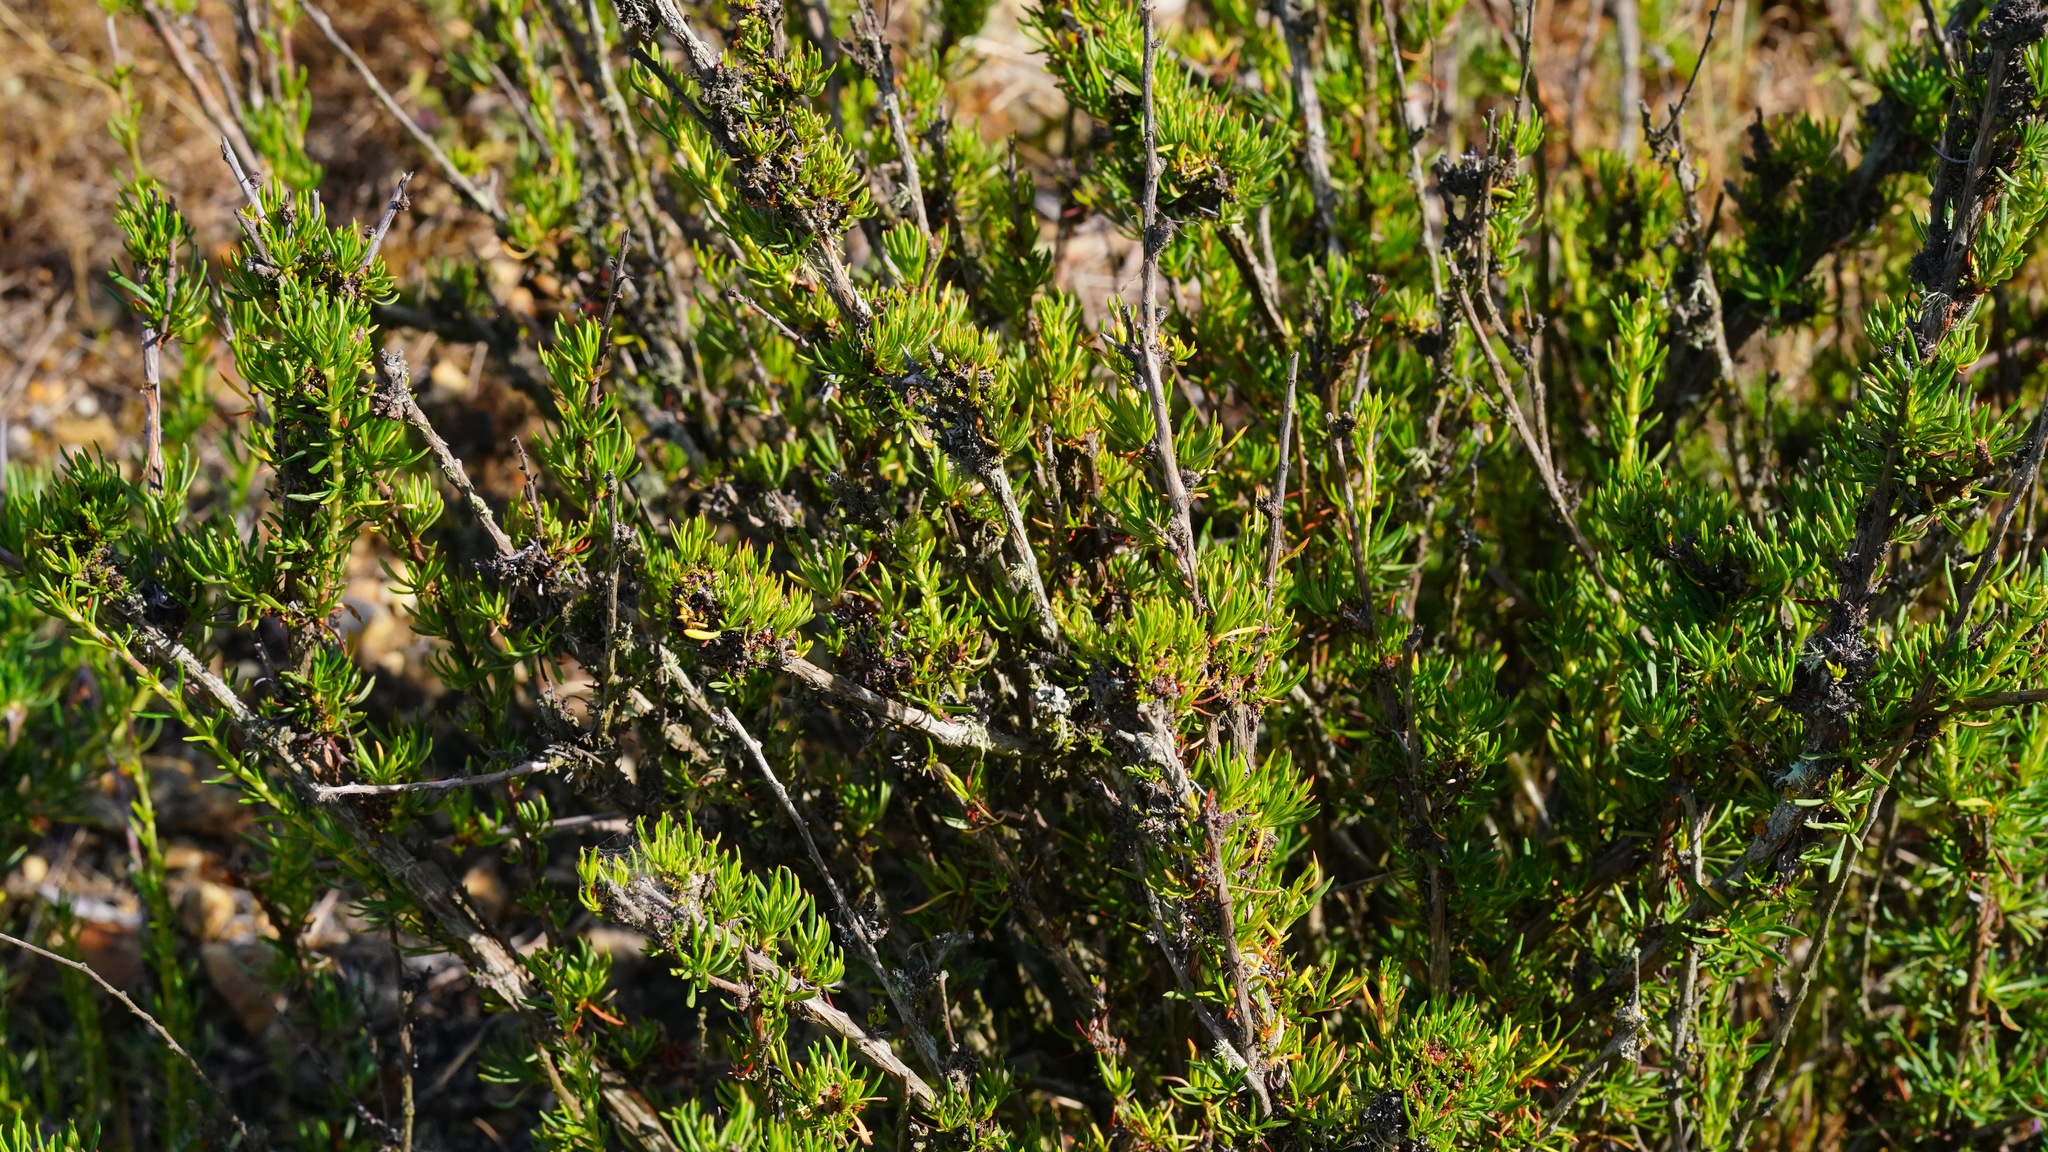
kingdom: Plantae
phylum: Tracheophyta
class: Magnoliopsida
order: Caryophyllales
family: Polygonaceae
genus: Eriogonum
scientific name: Eriogonum fasciculatum
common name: California wild buckwheat
